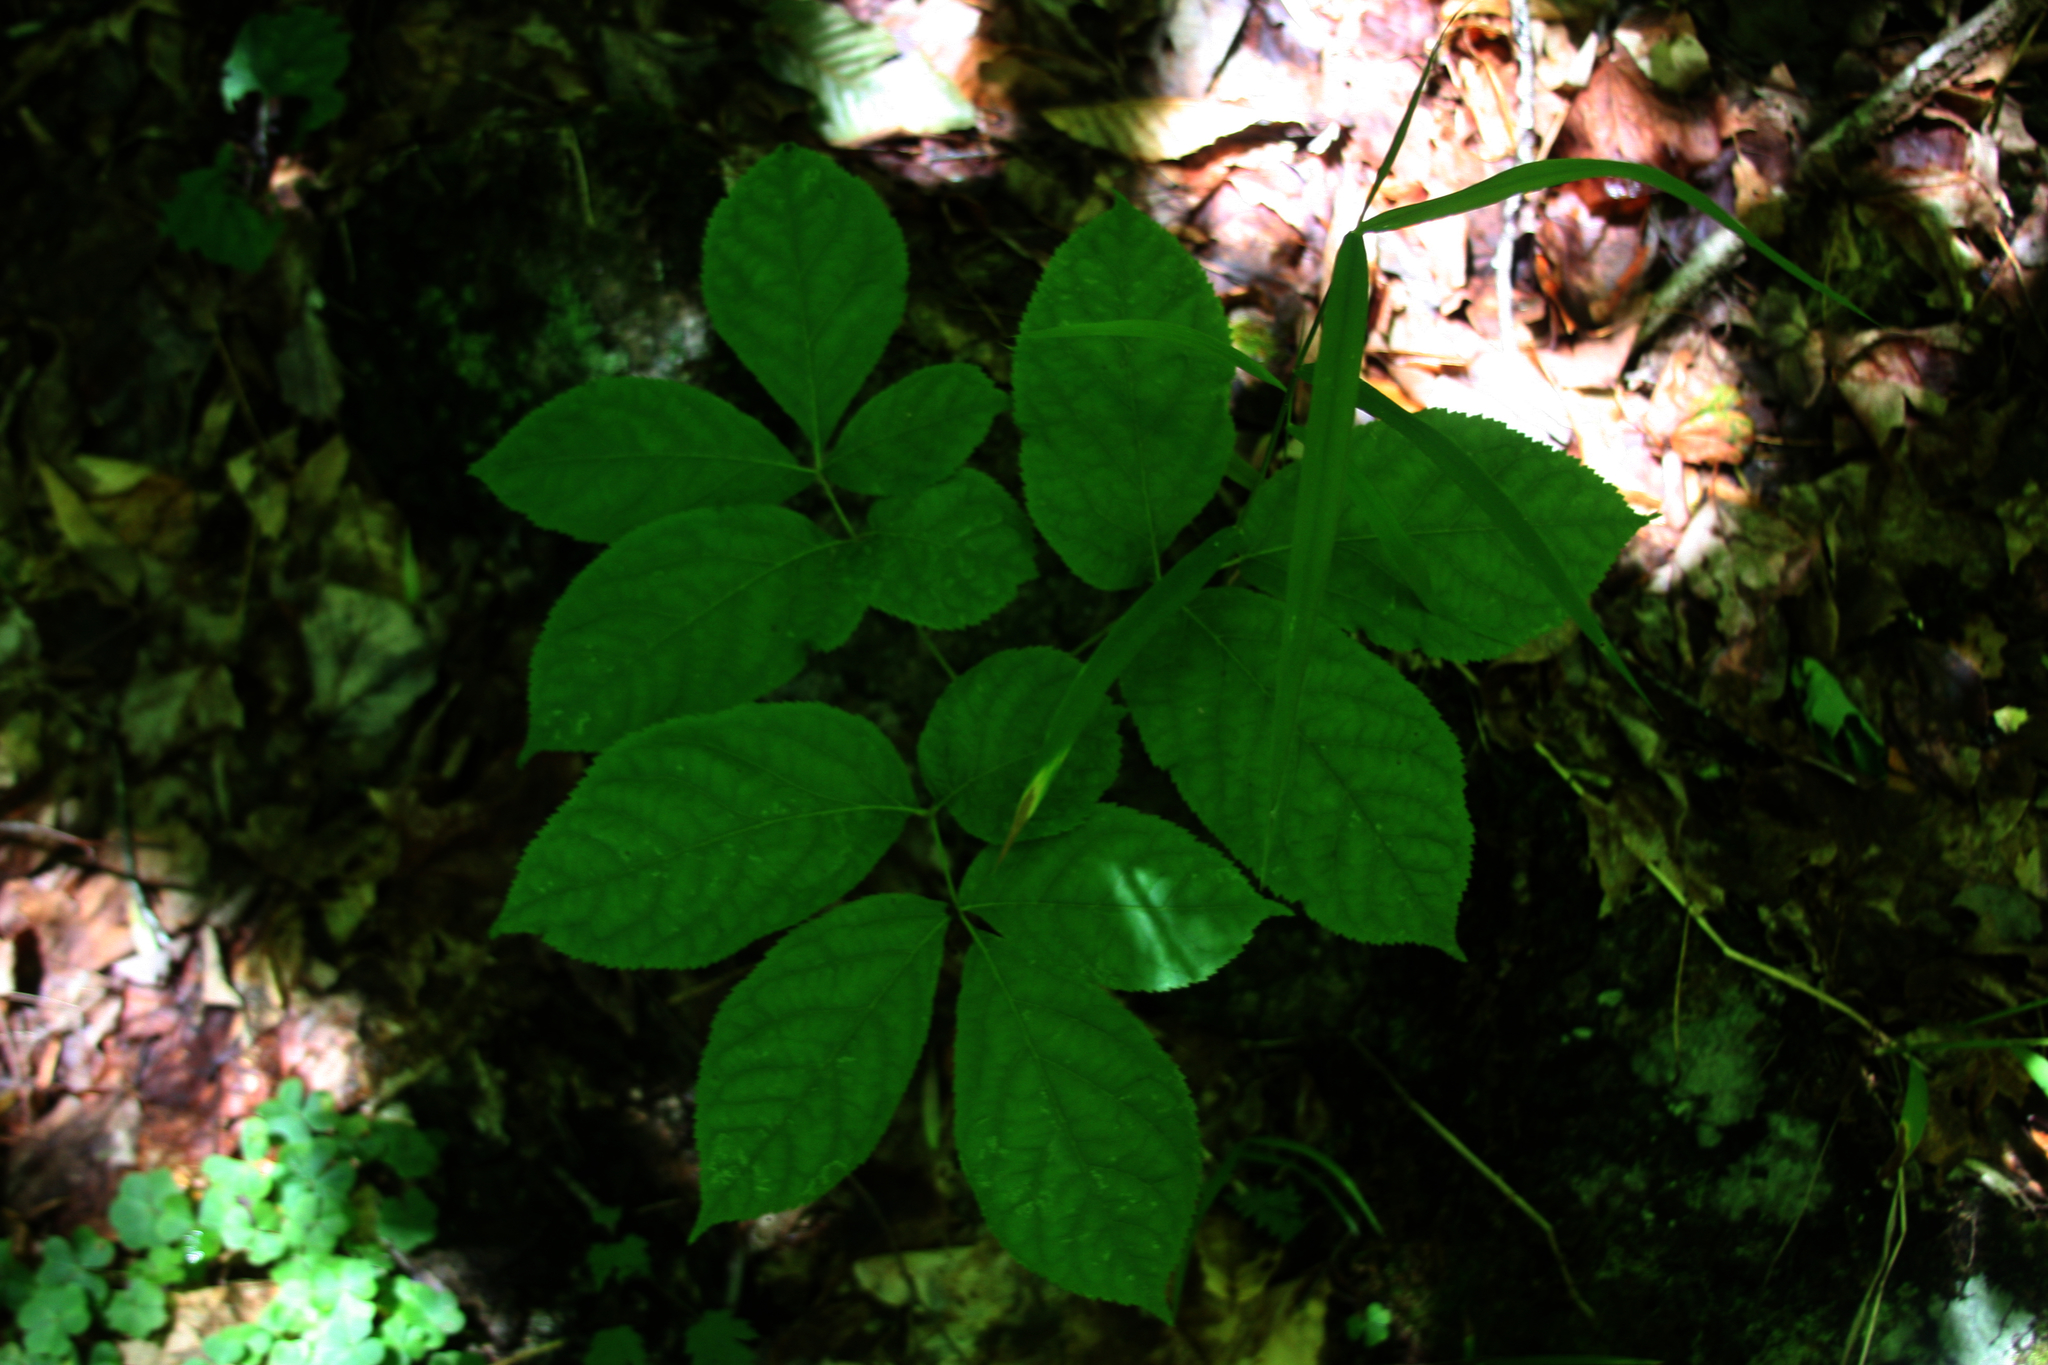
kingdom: Plantae
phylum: Tracheophyta
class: Magnoliopsida
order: Apiales
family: Araliaceae
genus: Aralia
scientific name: Aralia nudicaulis
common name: Wild sarsaparilla
